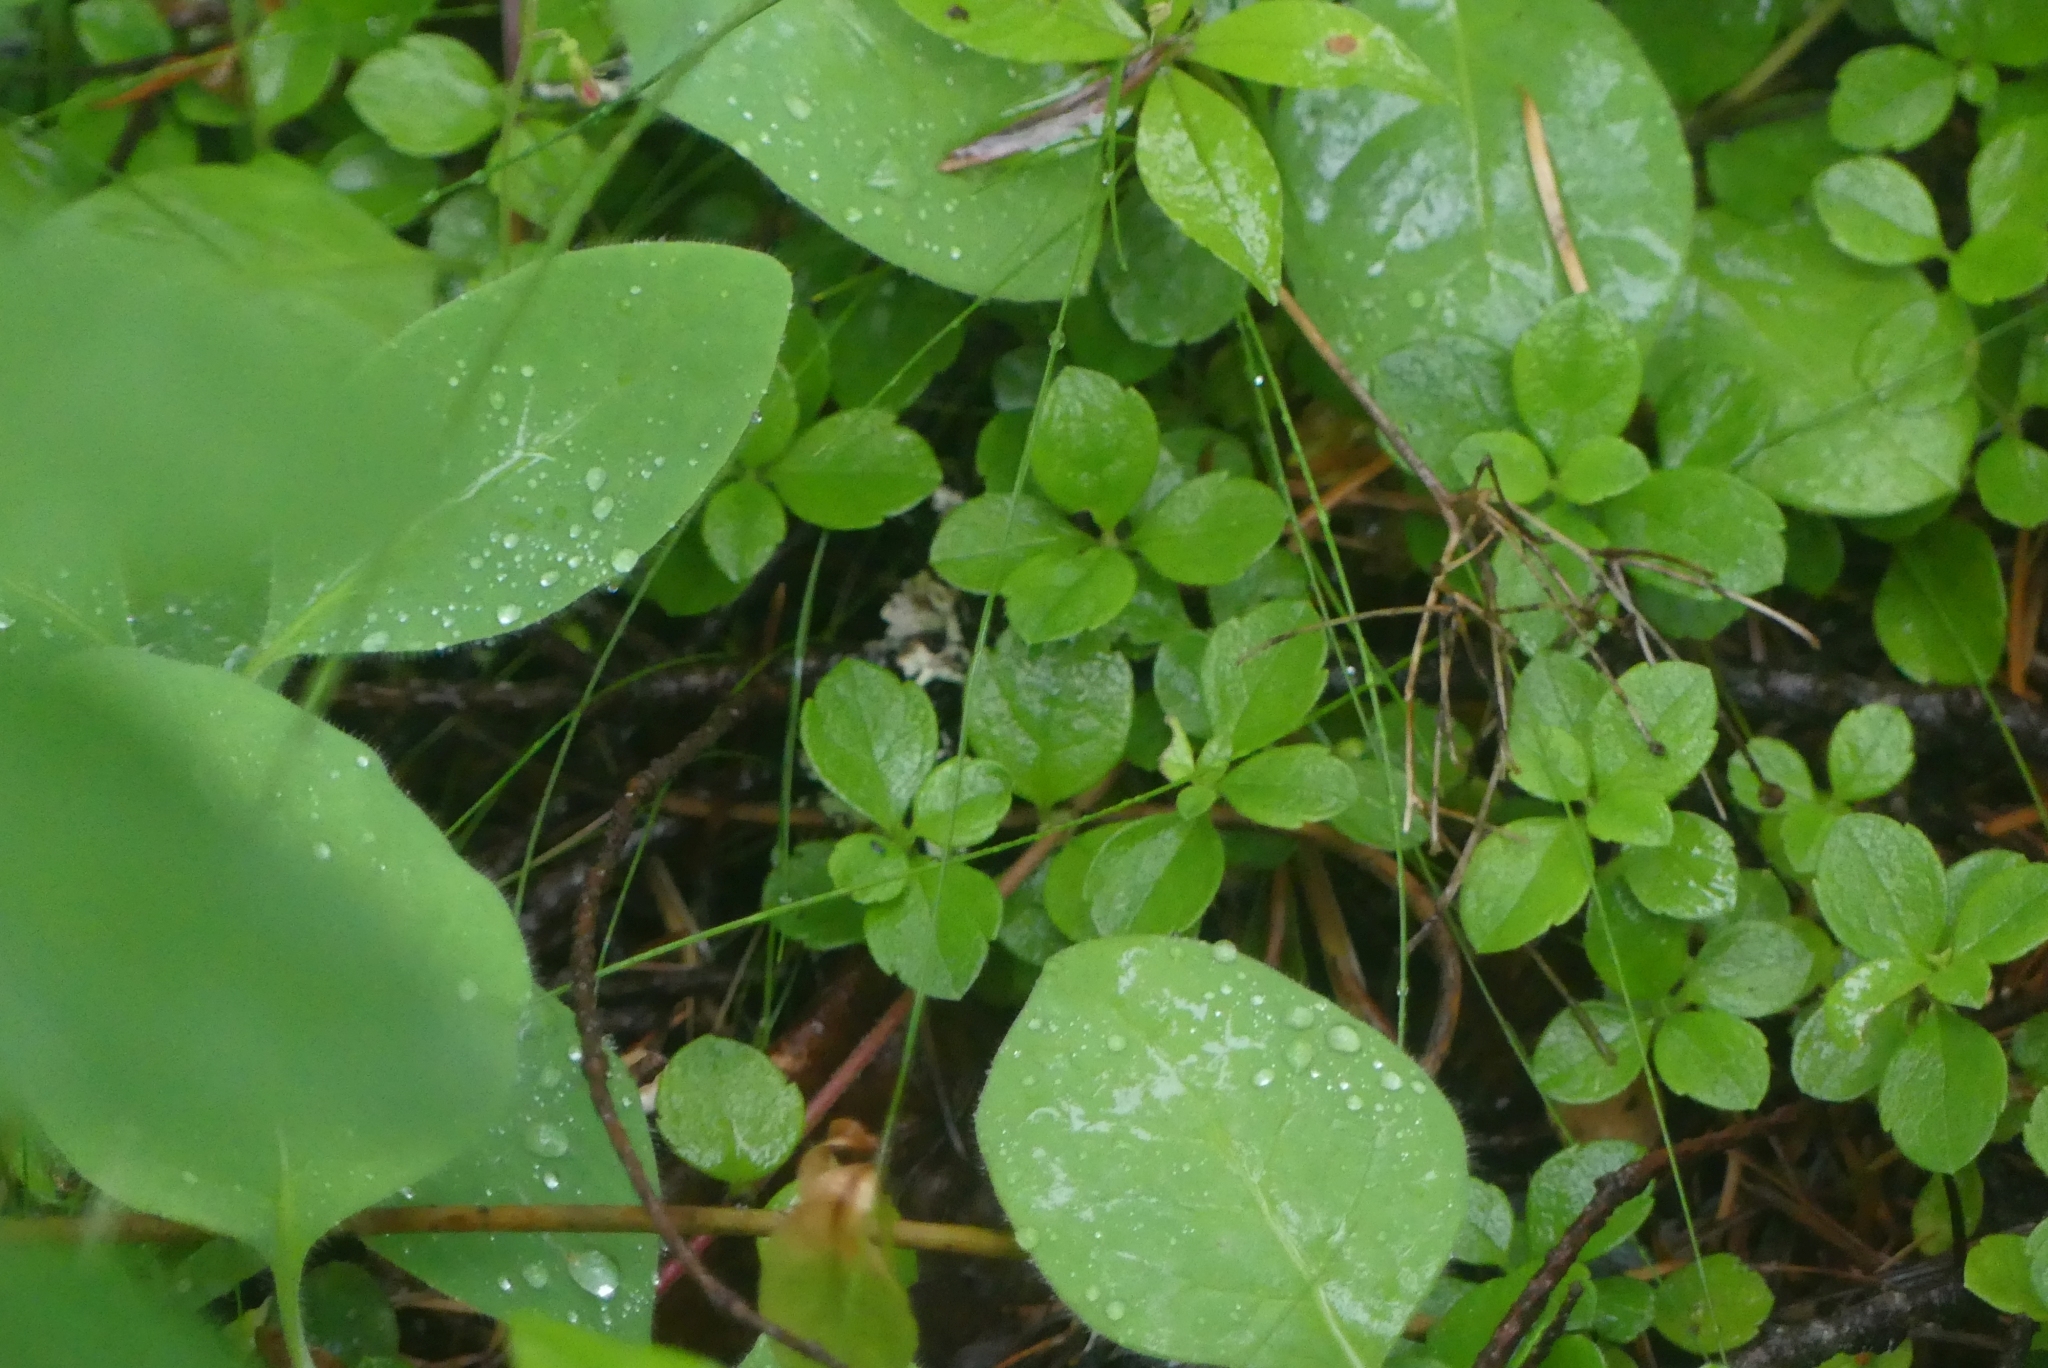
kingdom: Plantae
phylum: Tracheophyta
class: Magnoliopsida
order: Dipsacales
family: Caprifoliaceae
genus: Linnaea
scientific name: Linnaea borealis
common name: Twinflower
